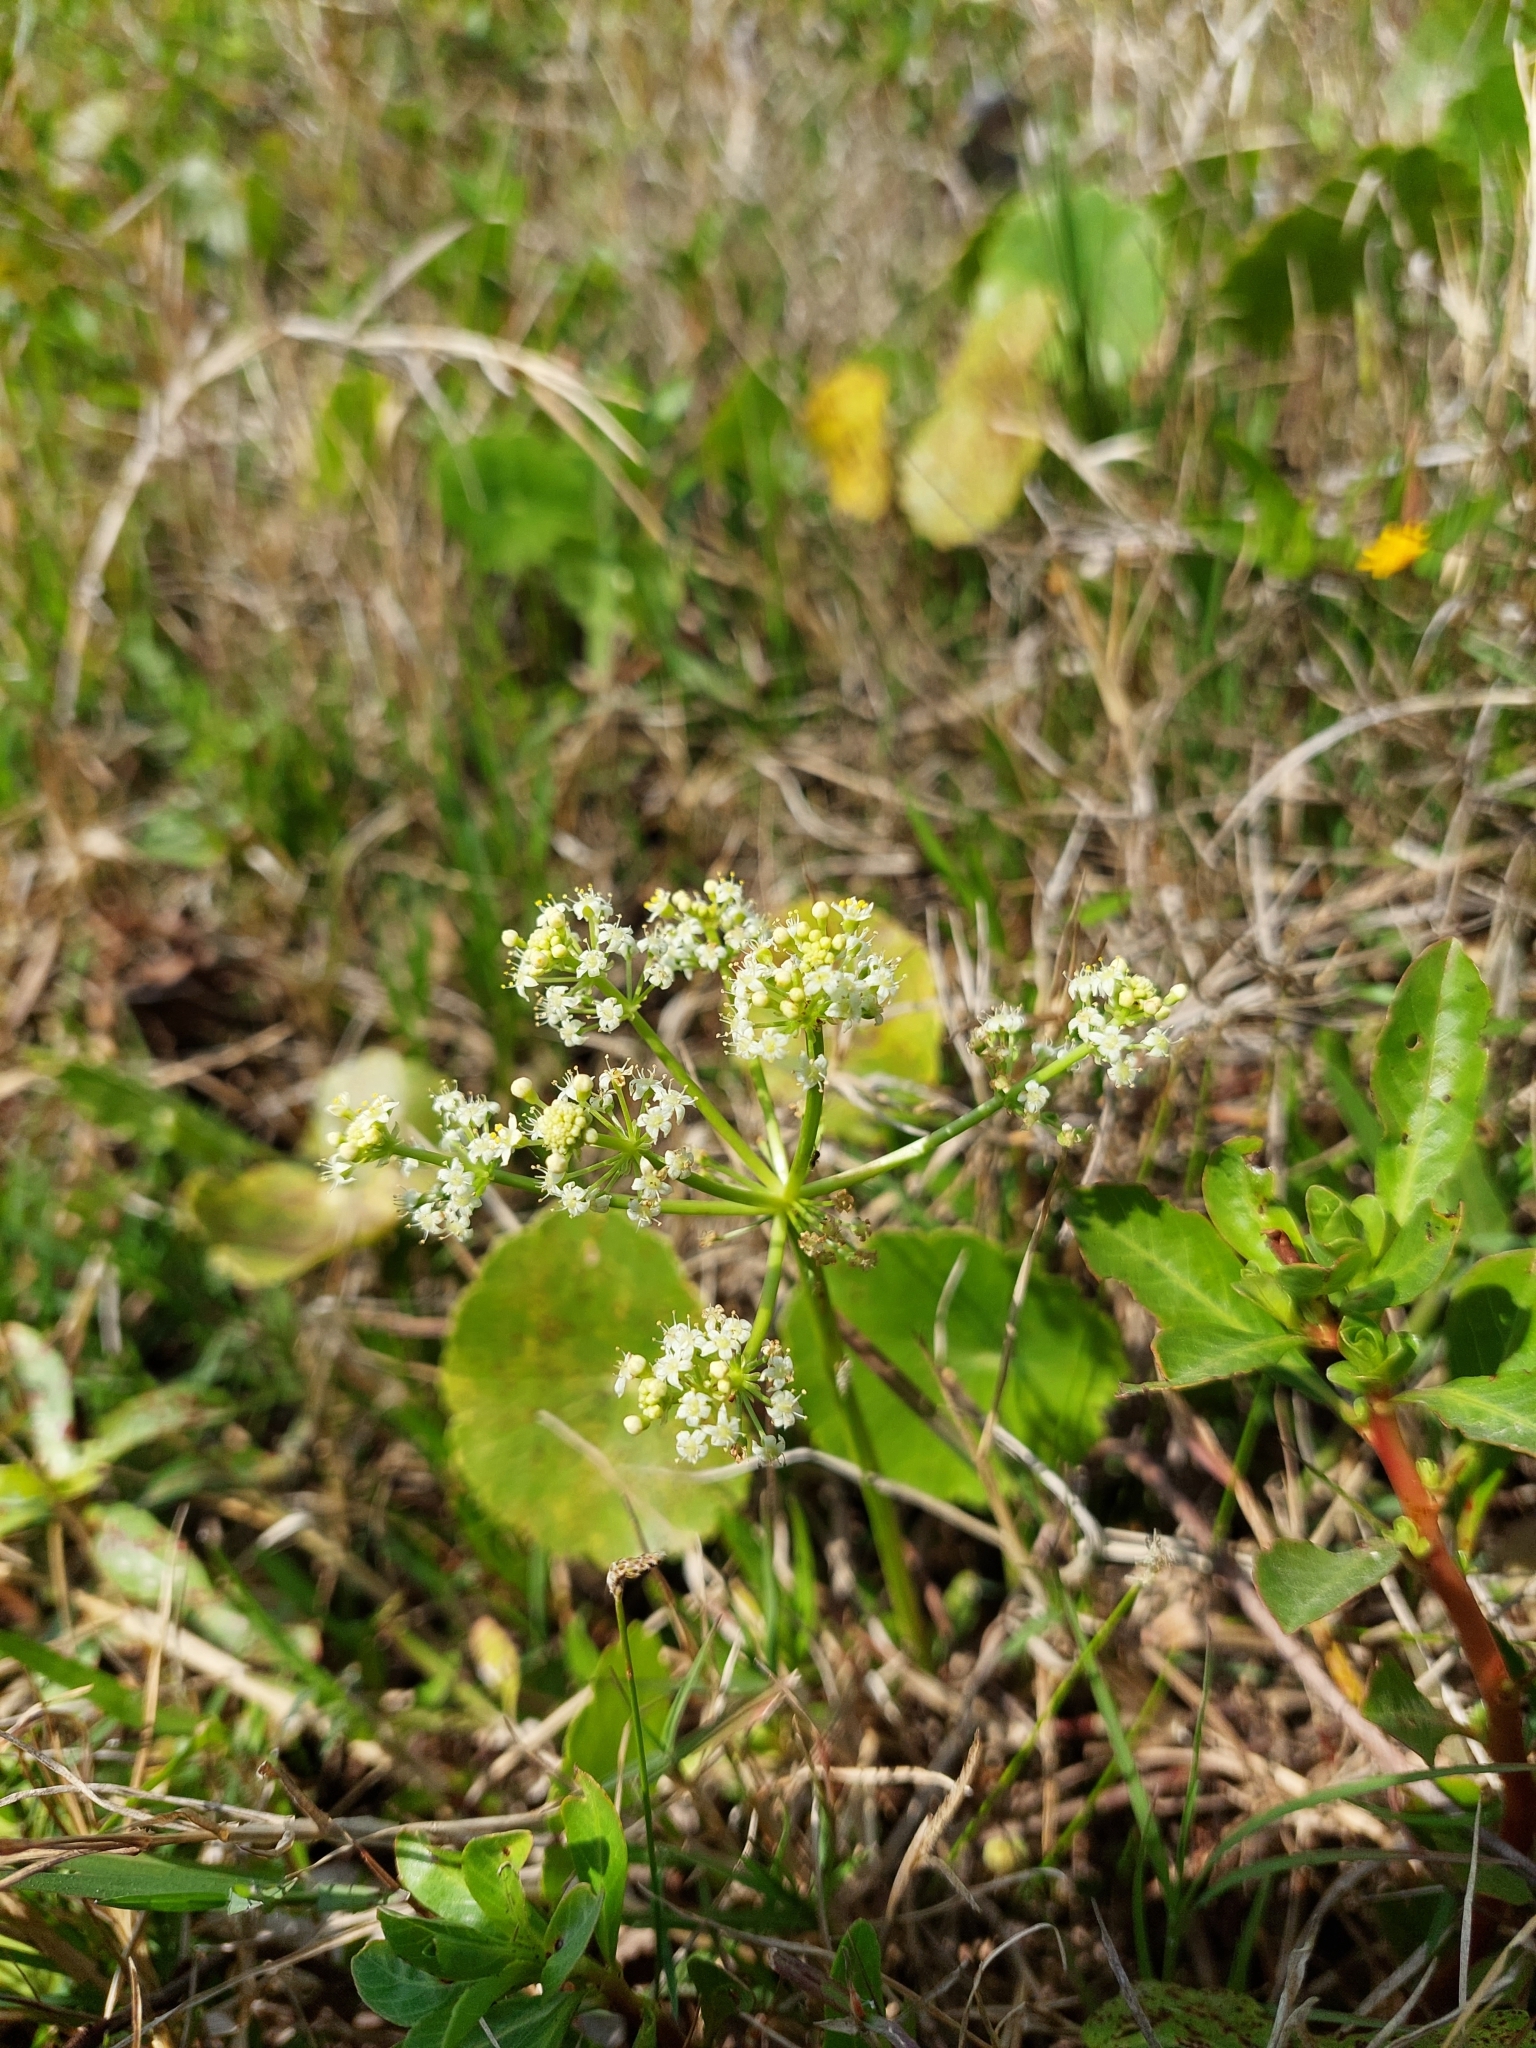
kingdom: Plantae
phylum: Tracheophyta
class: Magnoliopsida
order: Apiales
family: Araliaceae
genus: Hydrocotyle
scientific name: Hydrocotyle bonariensis
